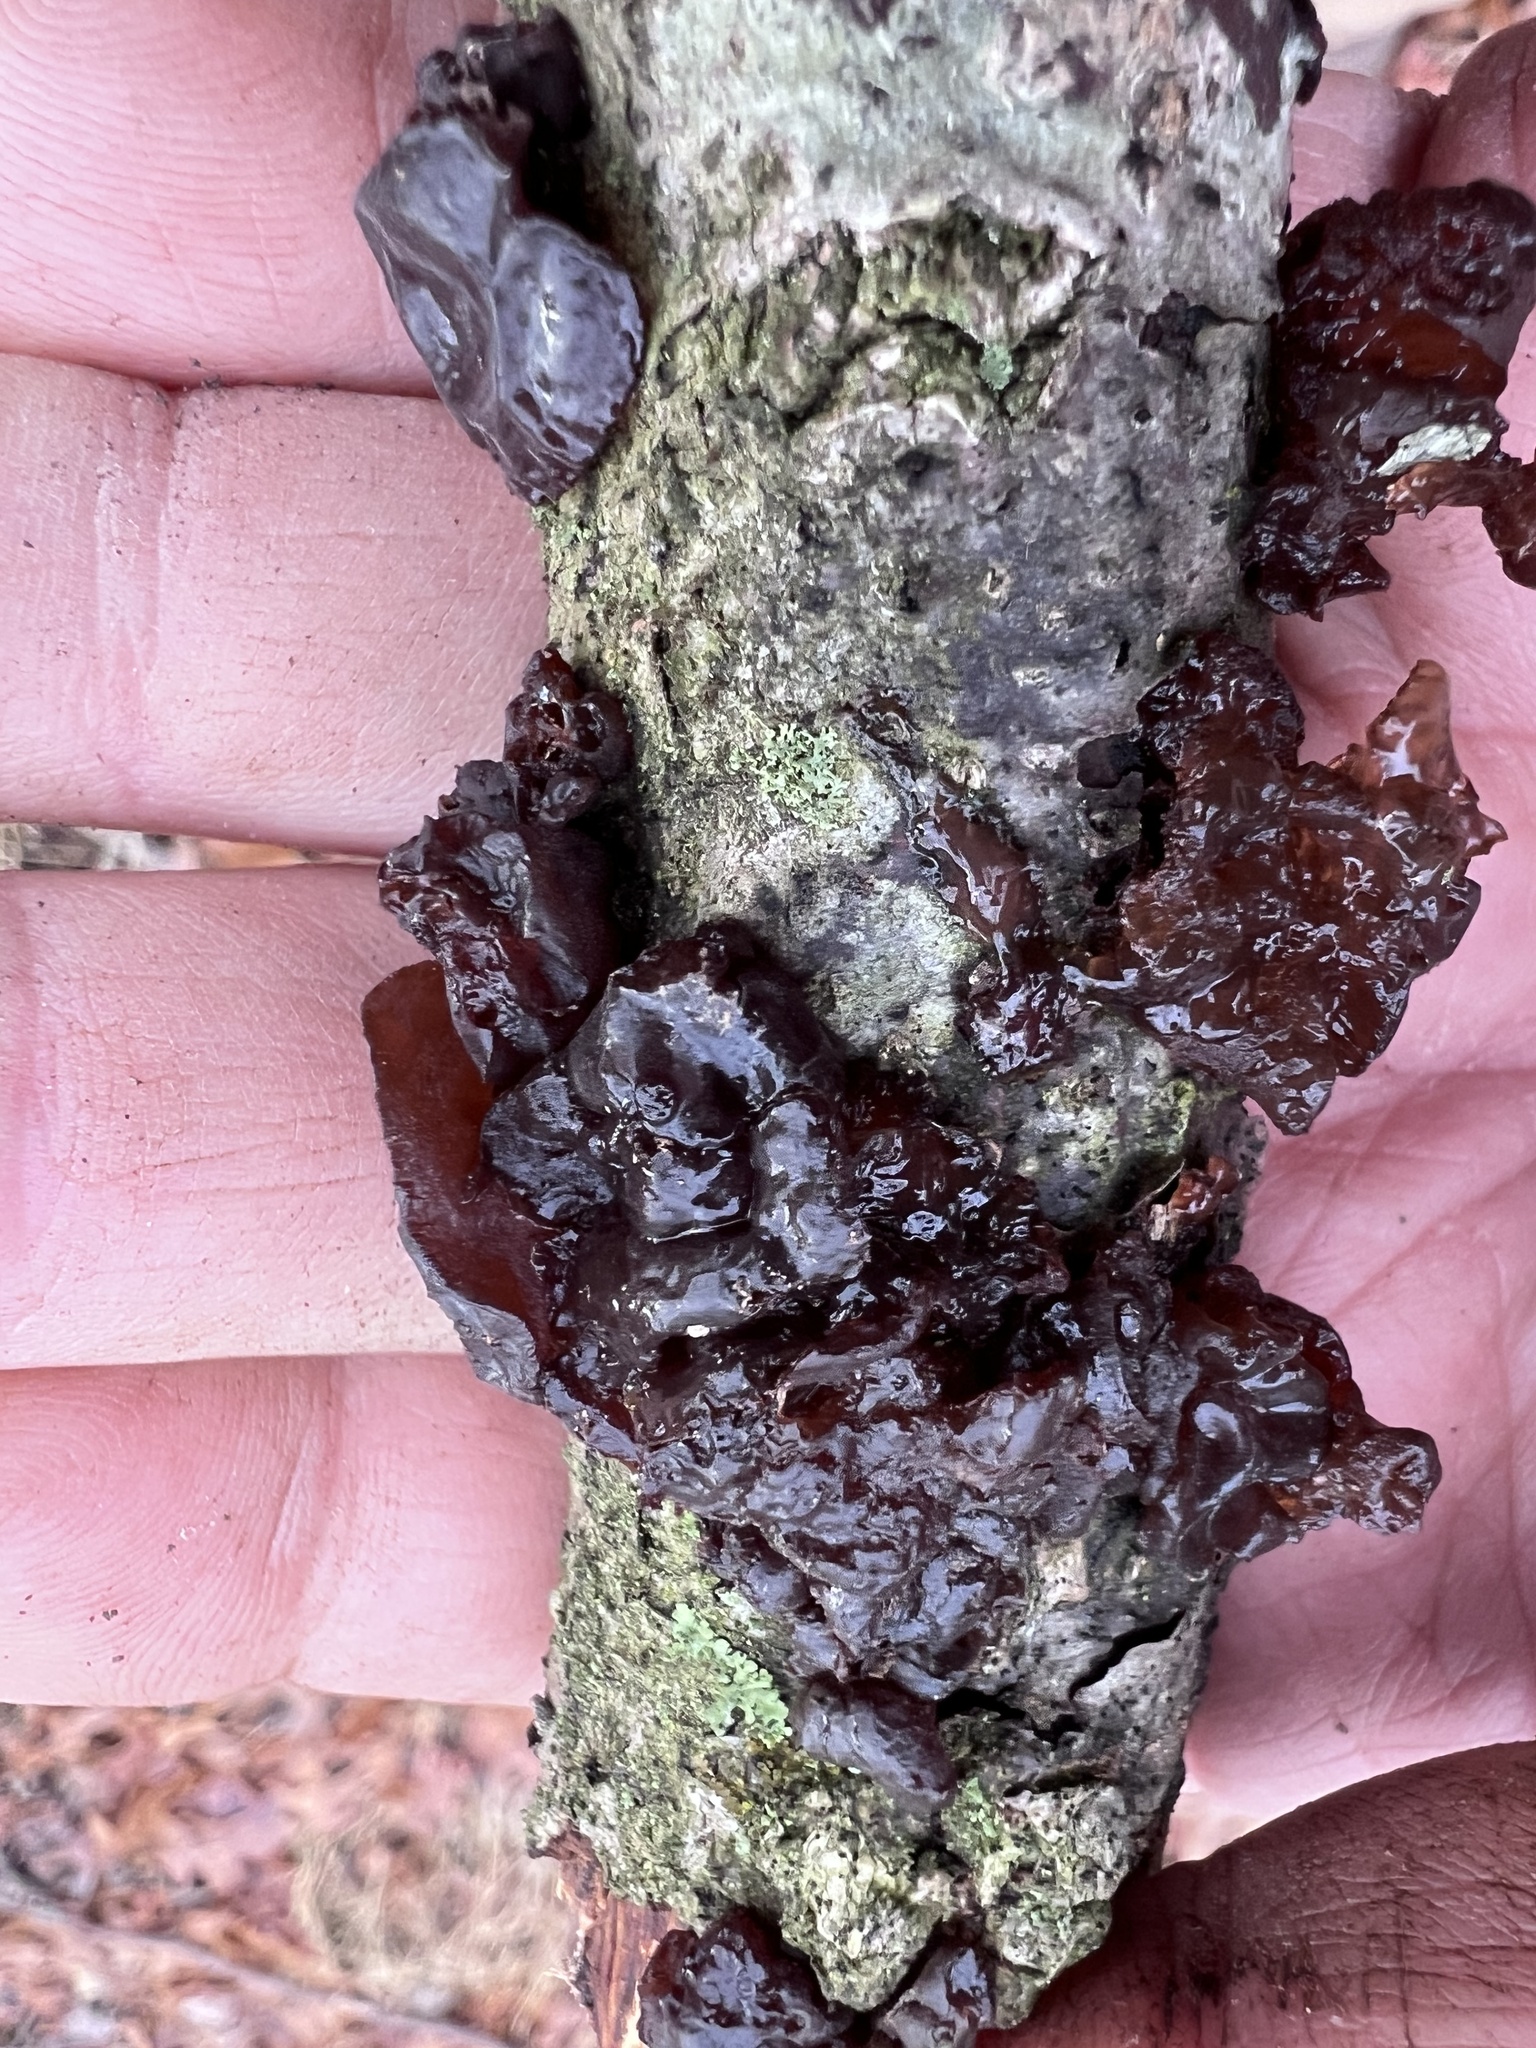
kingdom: Fungi
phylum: Basidiomycota
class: Agaricomycetes
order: Auriculariales
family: Auriculariaceae
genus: Exidia
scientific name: Exidia
